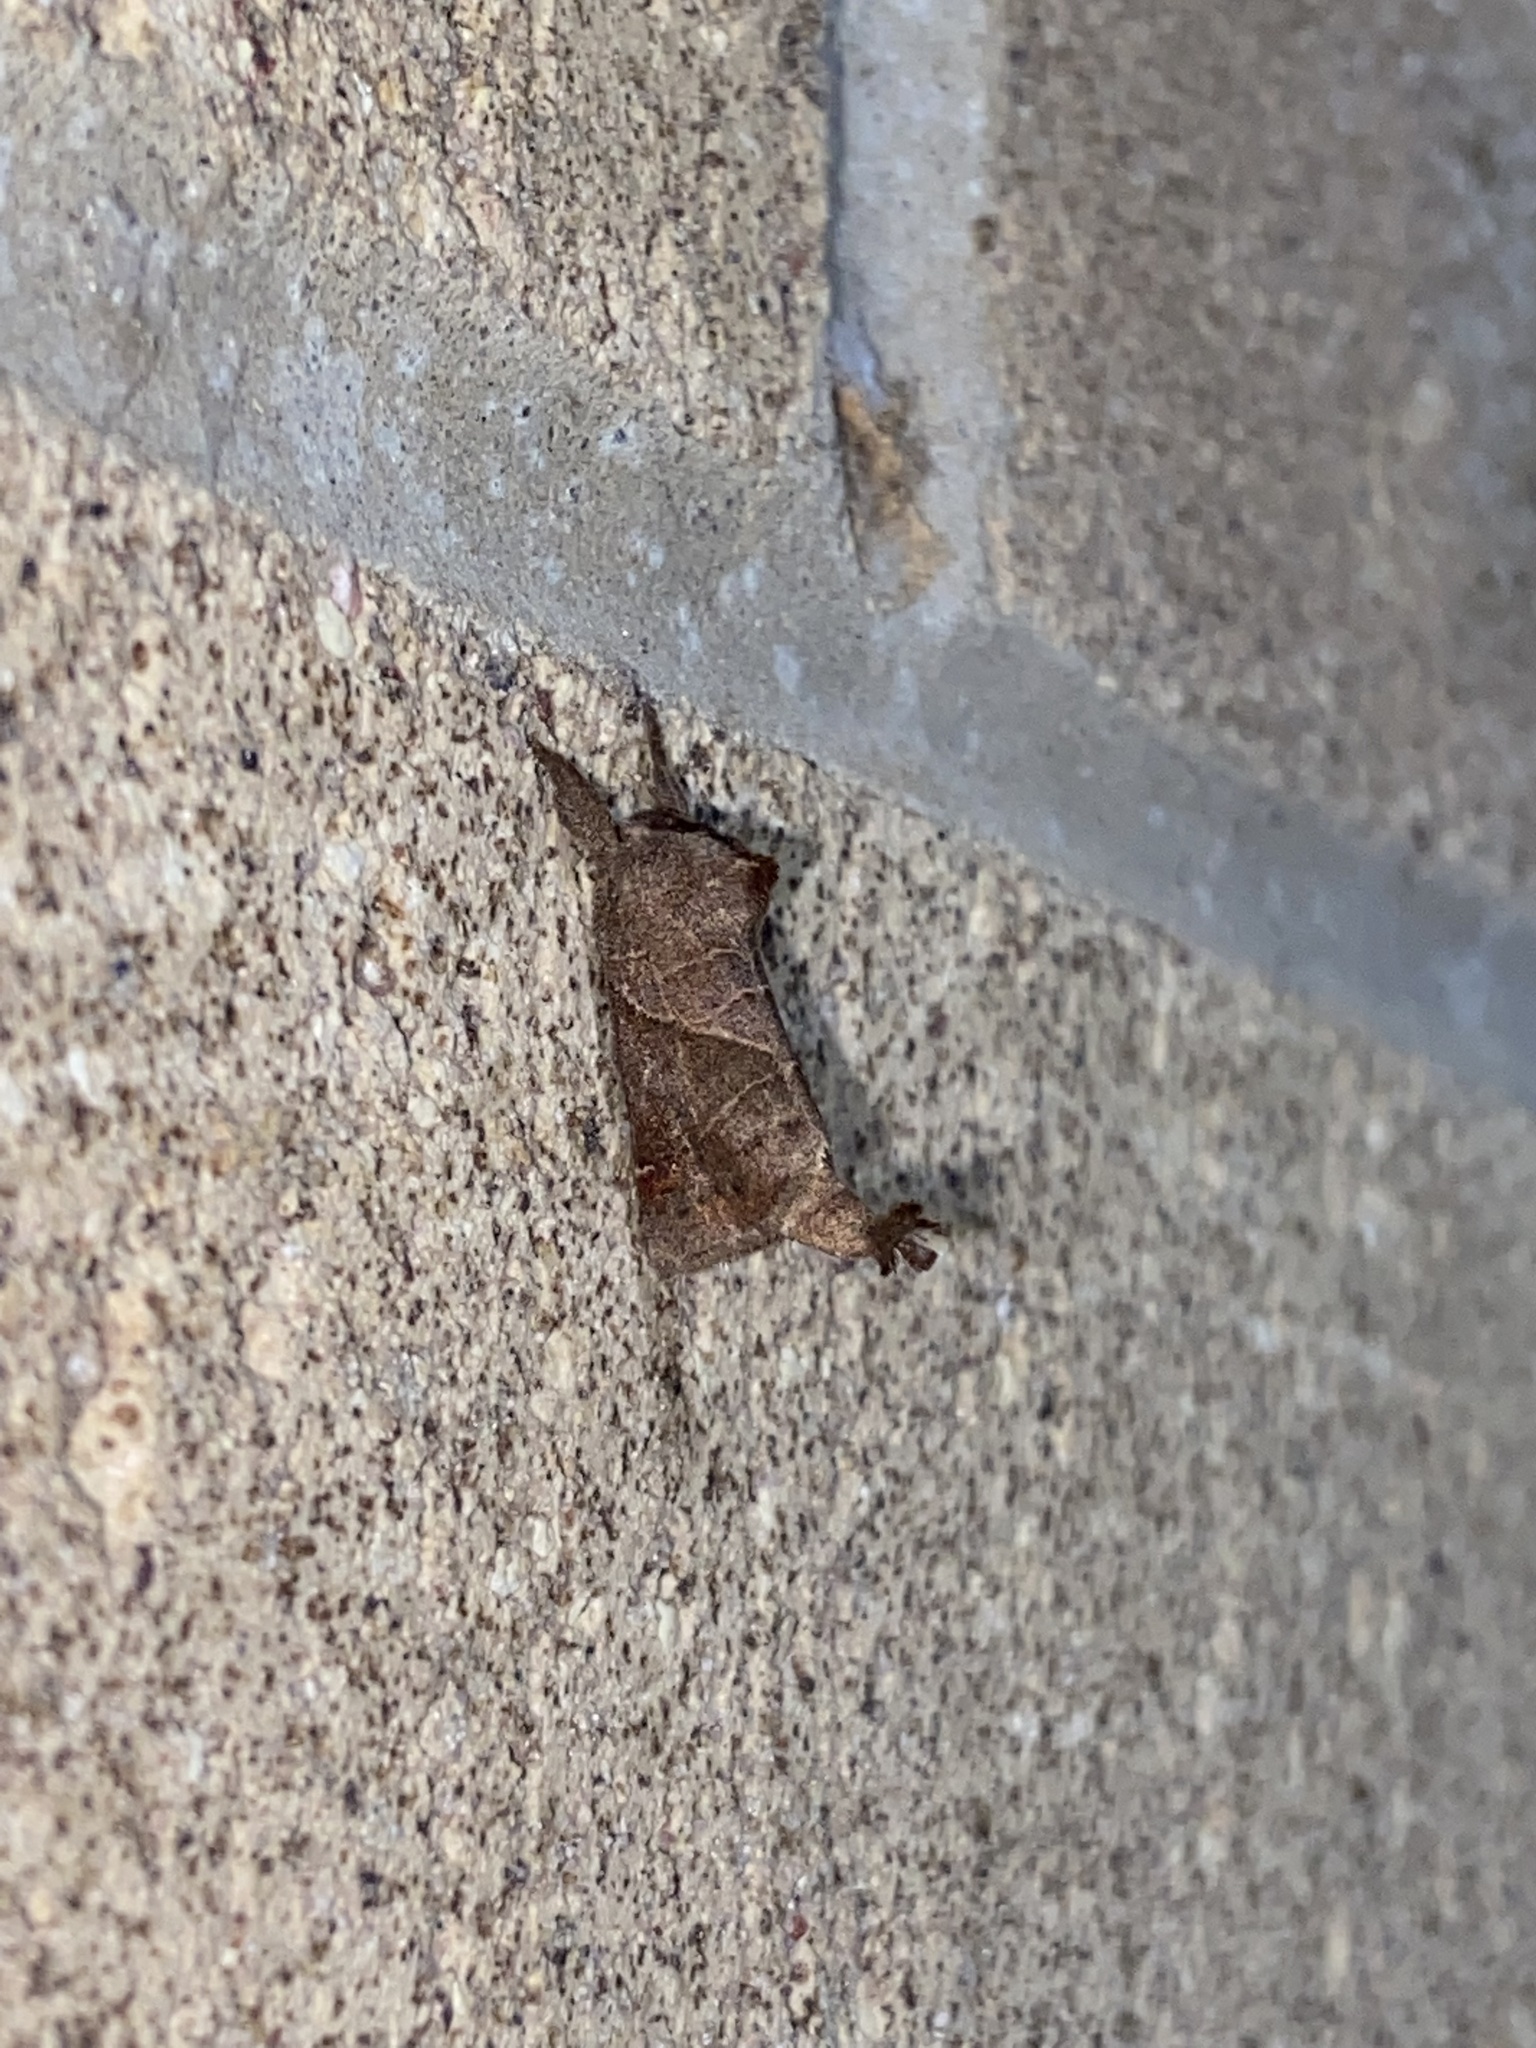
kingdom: Animalia
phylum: Arthropoda
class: Insecta
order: Lepidoptera
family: Notodontidae
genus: Clostera
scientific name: Clostera inclusa
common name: Angle-lined prominent
